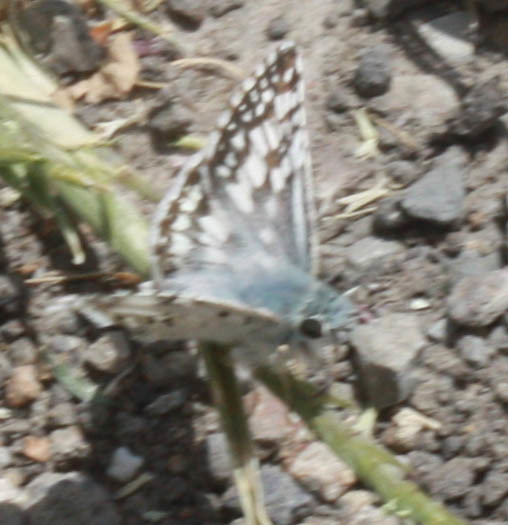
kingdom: Animalia
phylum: Arthropoda
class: Insecta
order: Lepidoptera
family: Hesperiidae
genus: Burnsius
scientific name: Burnsius communis
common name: Common checkered-skipper
